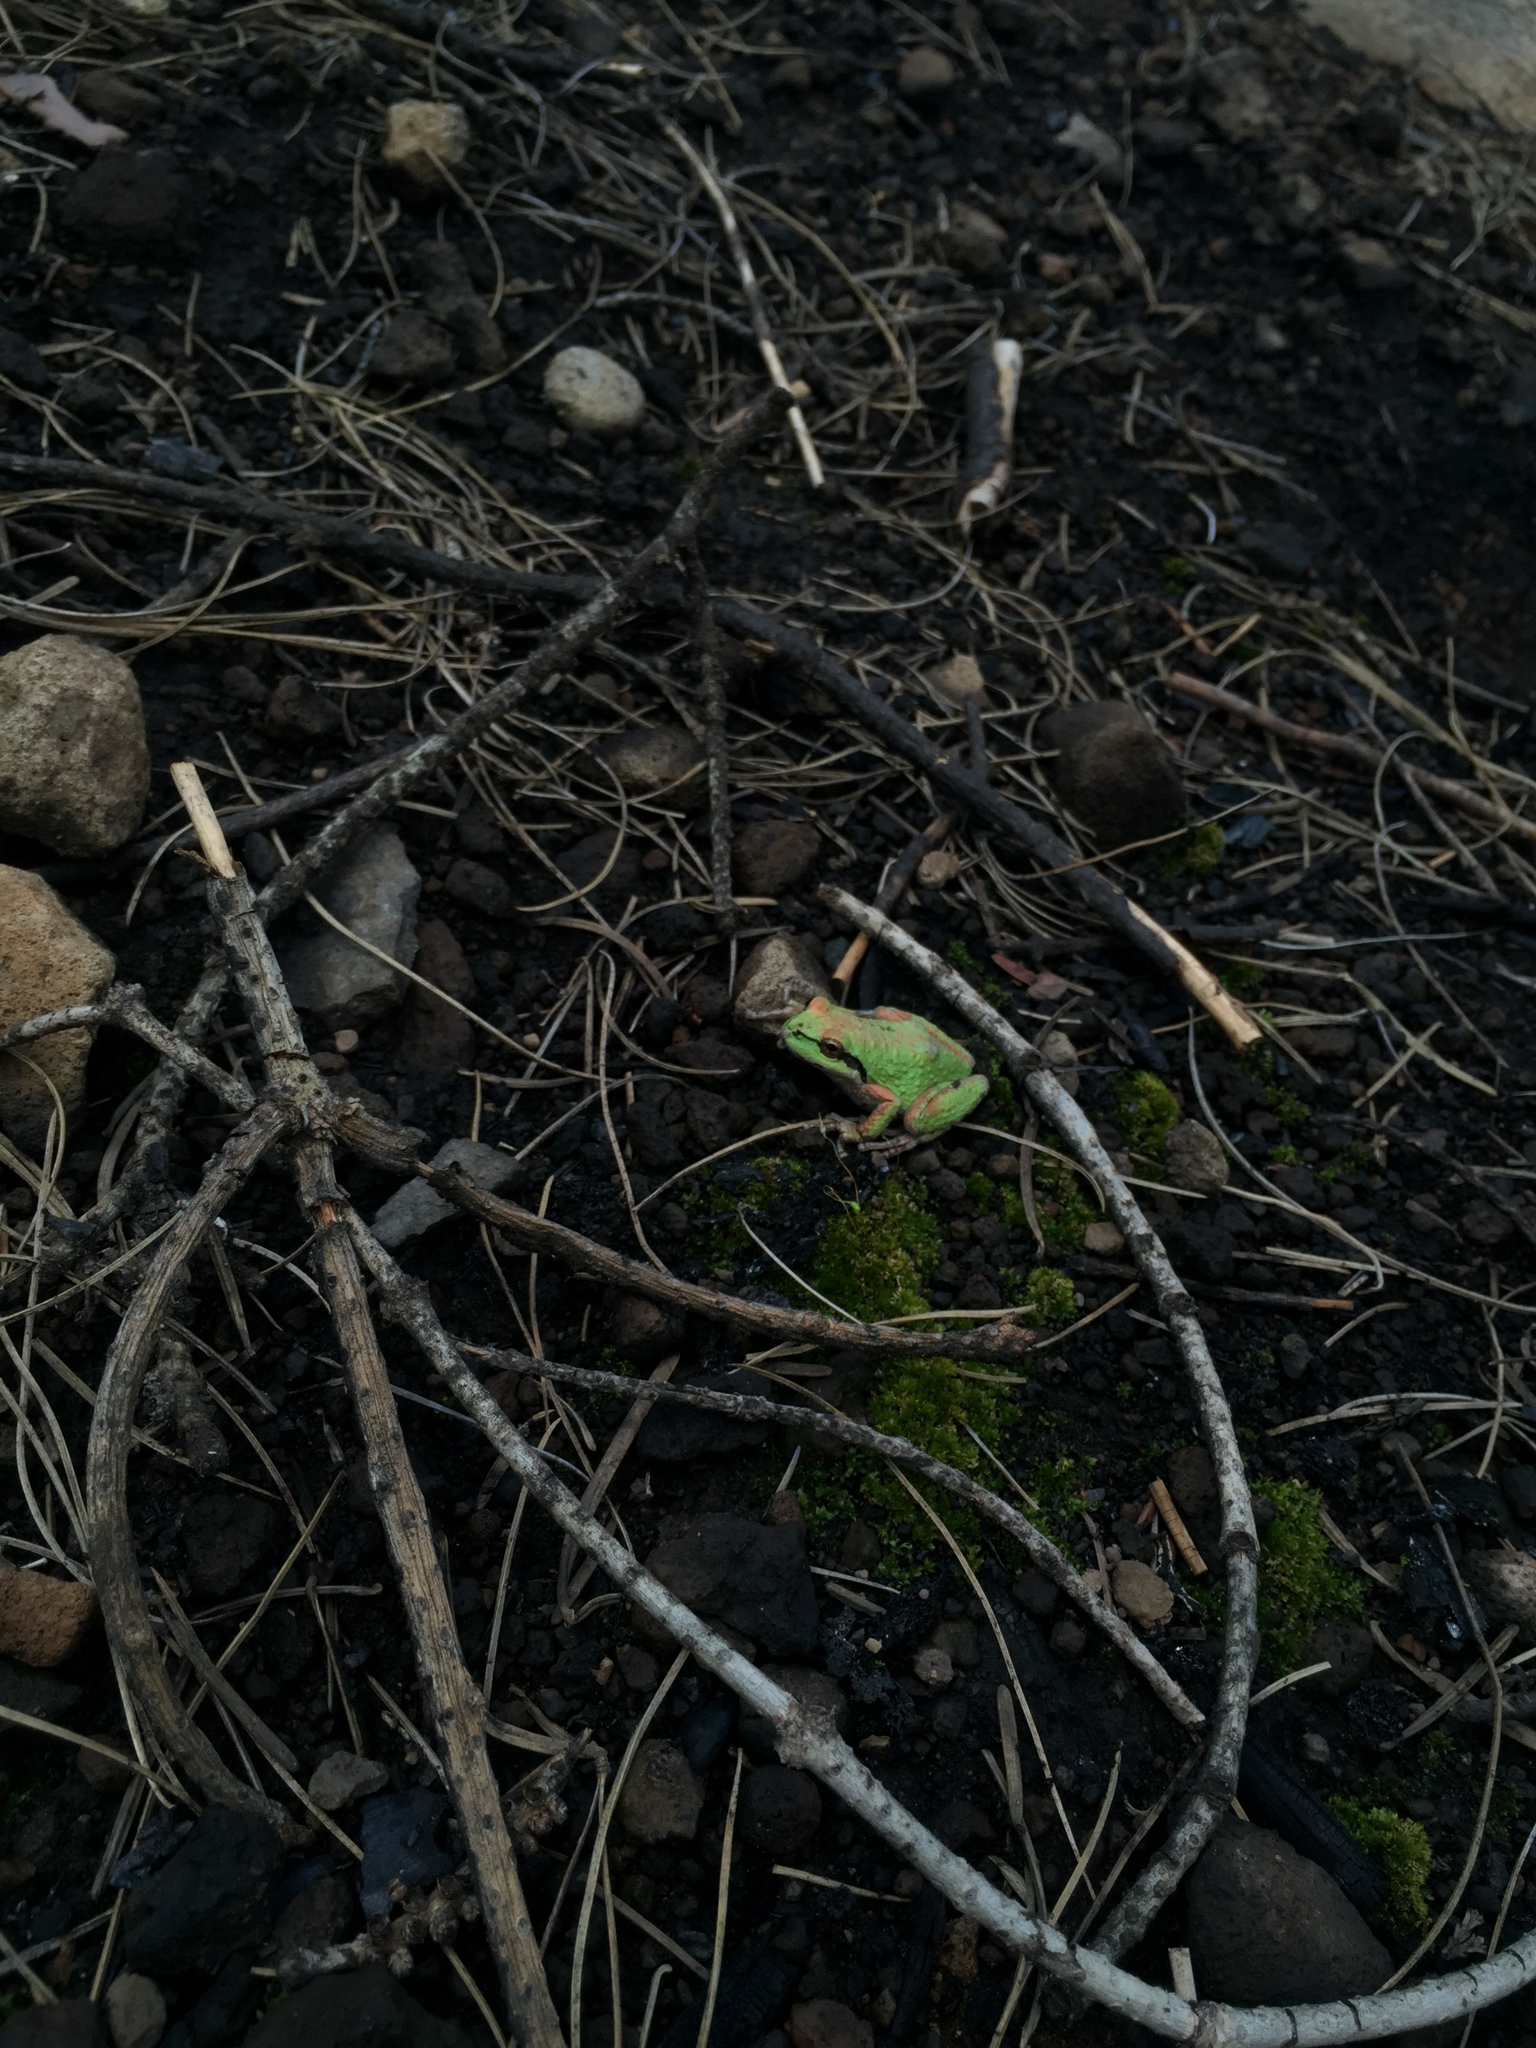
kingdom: Animalia
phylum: Chordata
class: Amphibia
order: Anura
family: Hylidae
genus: Pseudacris
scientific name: Pseudacris regilla
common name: Pacific chorus frog
